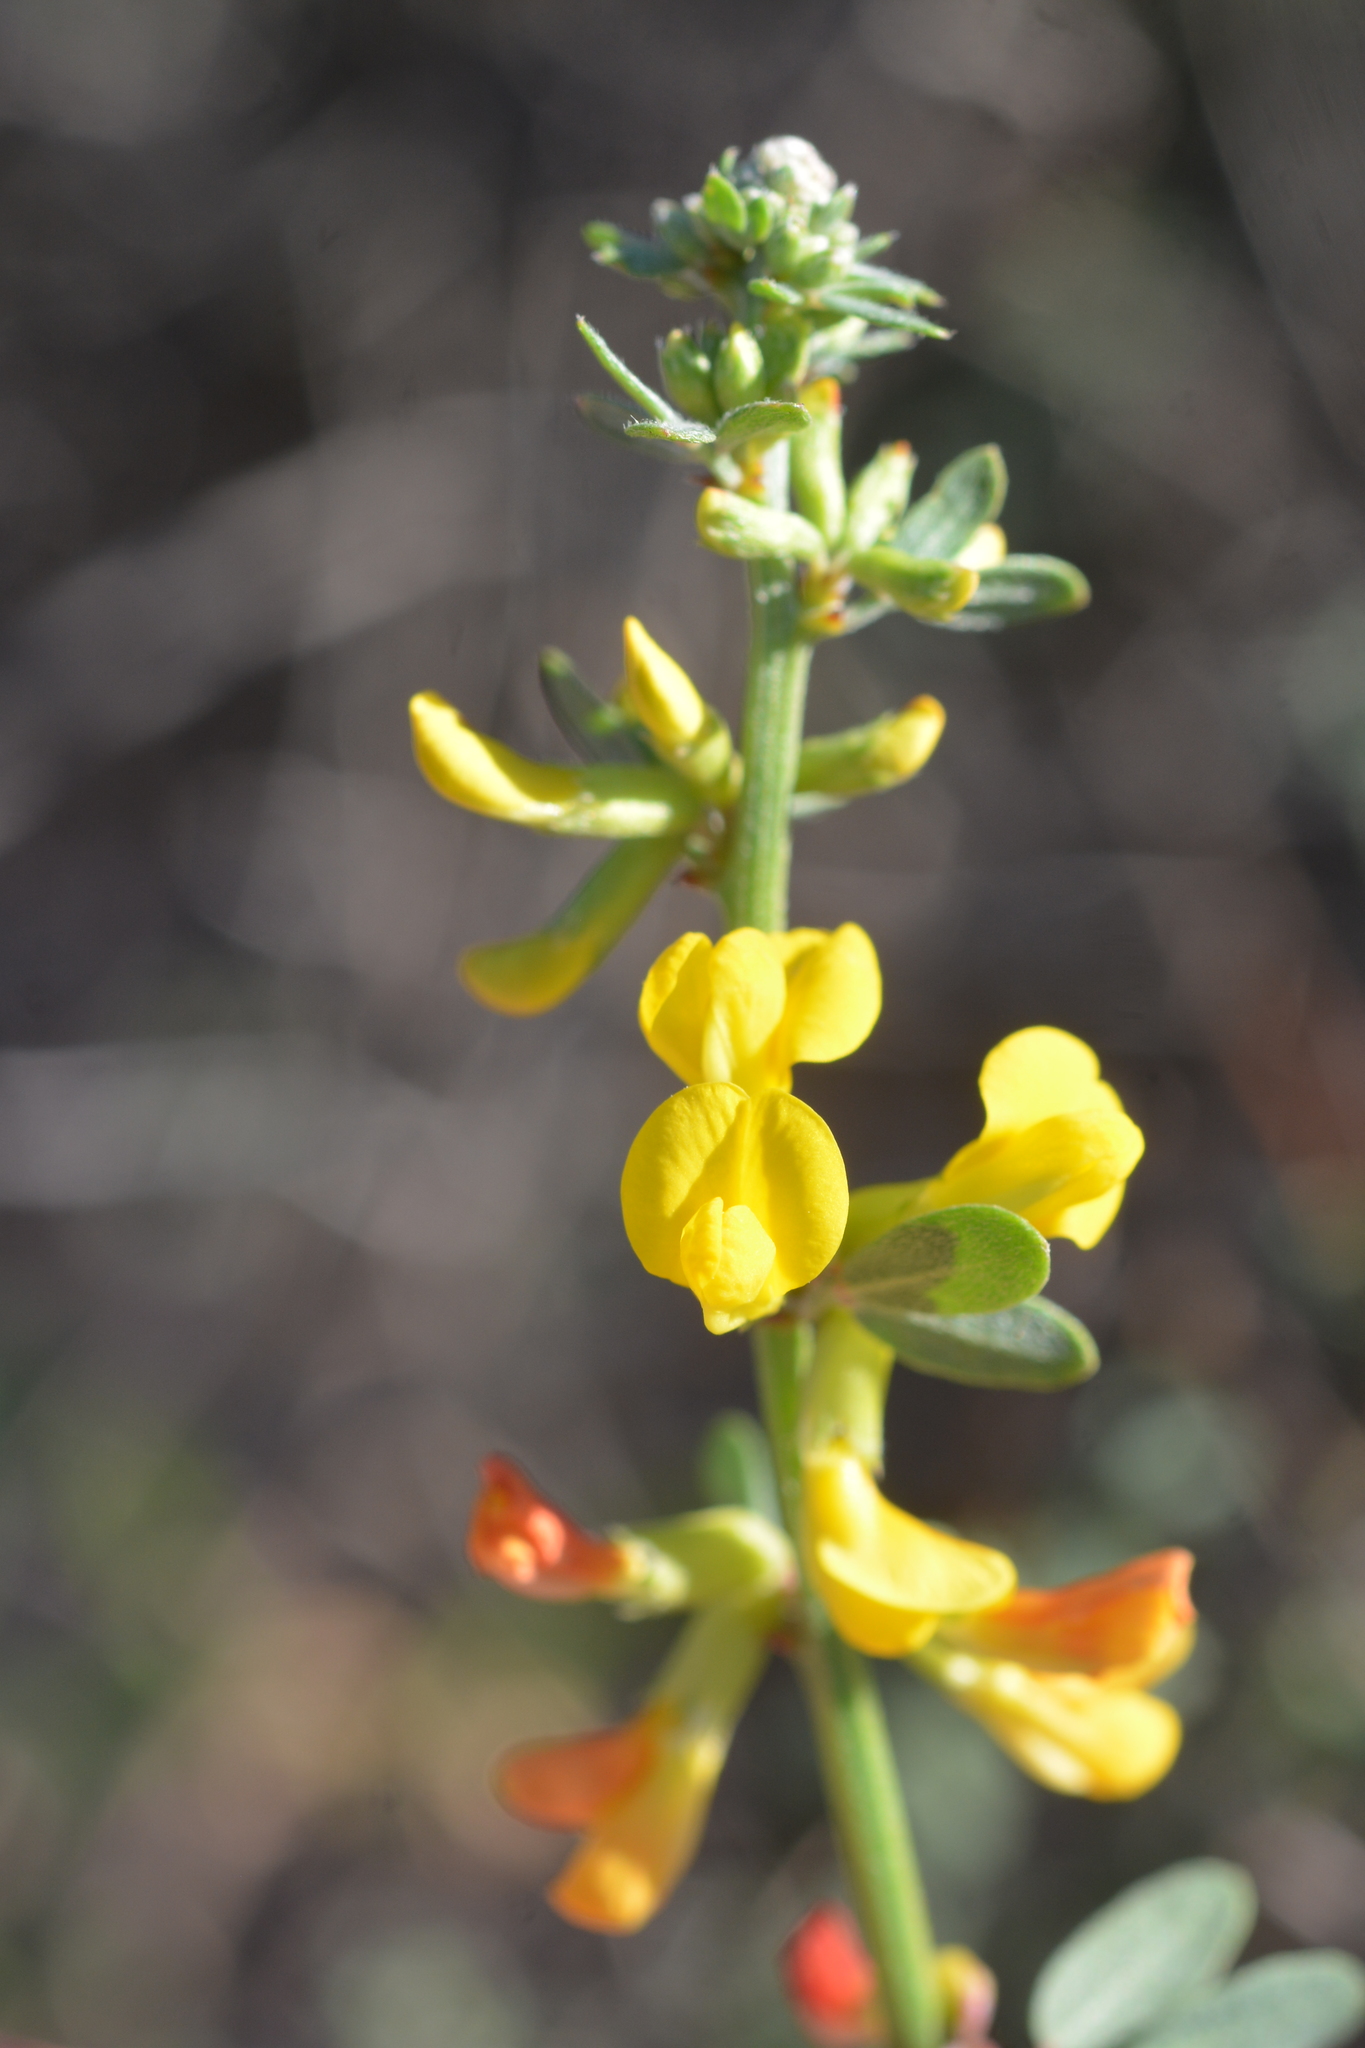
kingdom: Plantae
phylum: Tracheophyta
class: Magnoliopsida
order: Fabales
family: Fabaceae
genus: Acmispon
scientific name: Acmispon glaber
